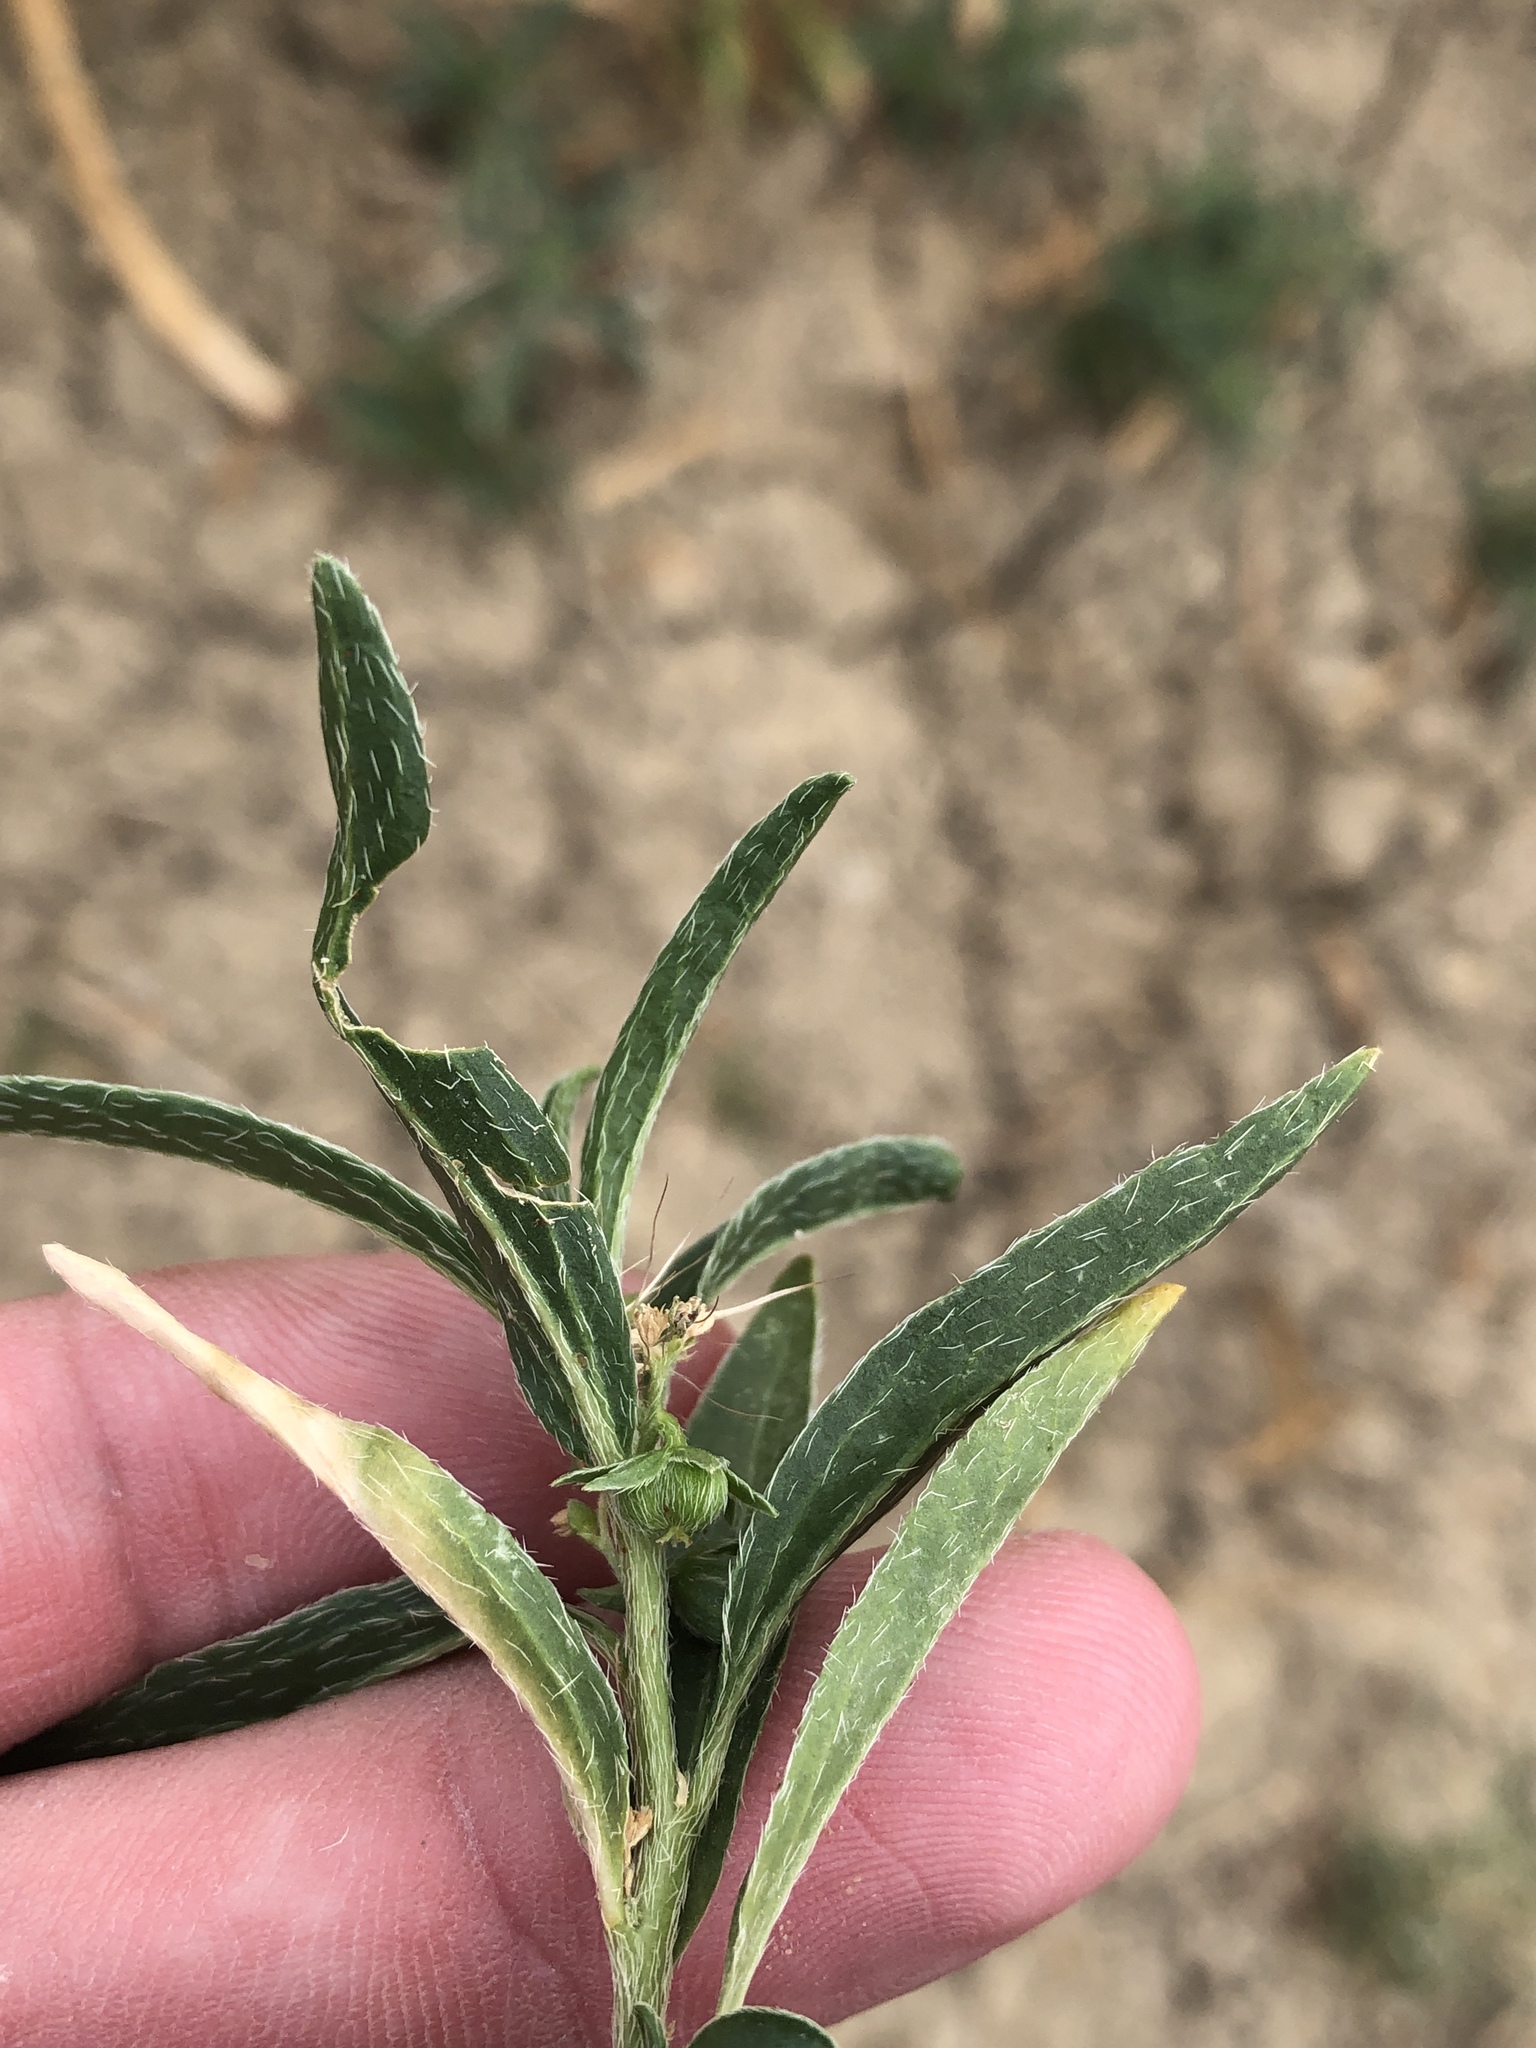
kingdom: Plantae
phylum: Tracheophyta
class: Magnoliopsida
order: Malpighiales
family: Euphorbiaceae
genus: Ditaxis
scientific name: Ditaxis humilis
